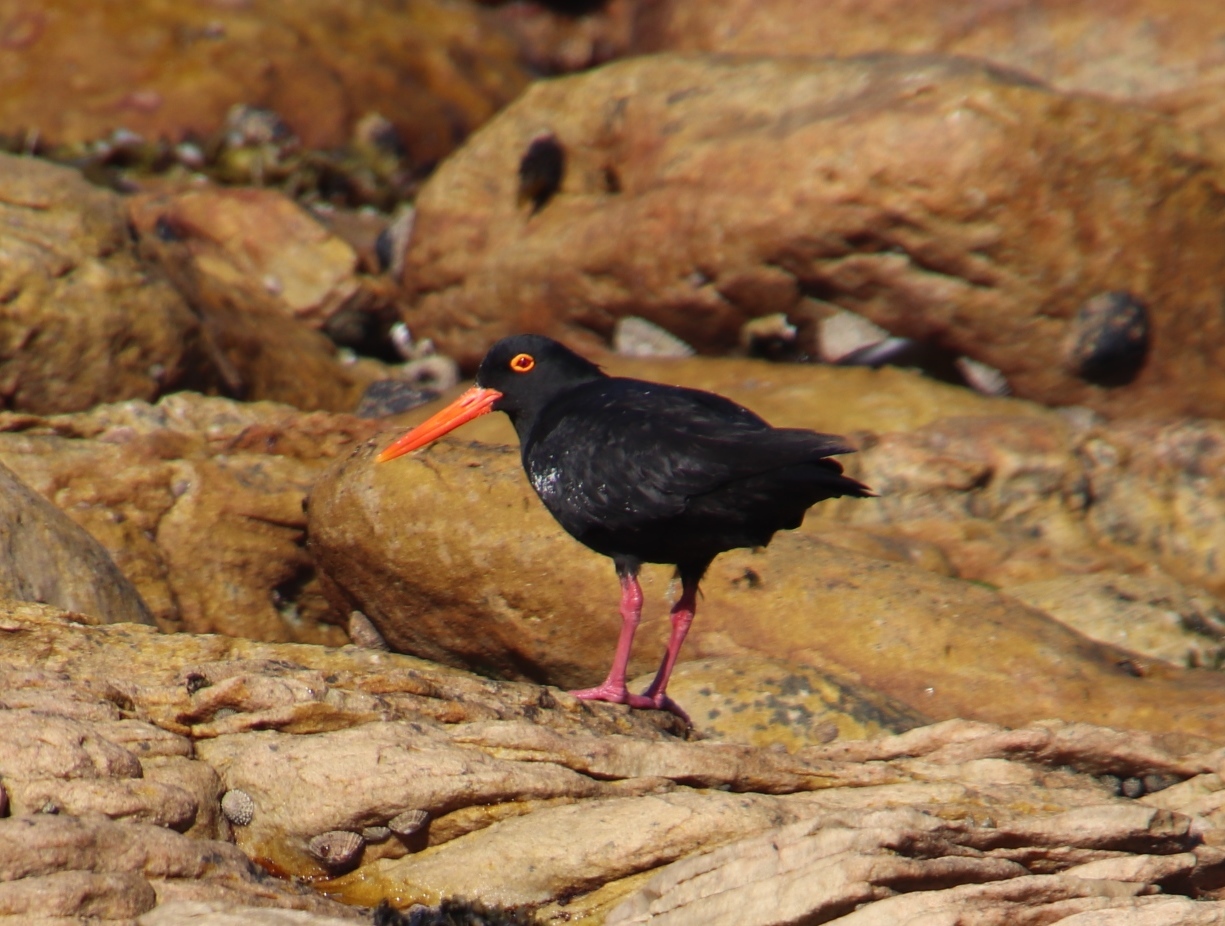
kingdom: Animalia
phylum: Chordata
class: Aves
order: Charadriiformes
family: Haematopodidae
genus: Haematopus
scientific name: Haematopus moquini
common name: African oystercatcher
